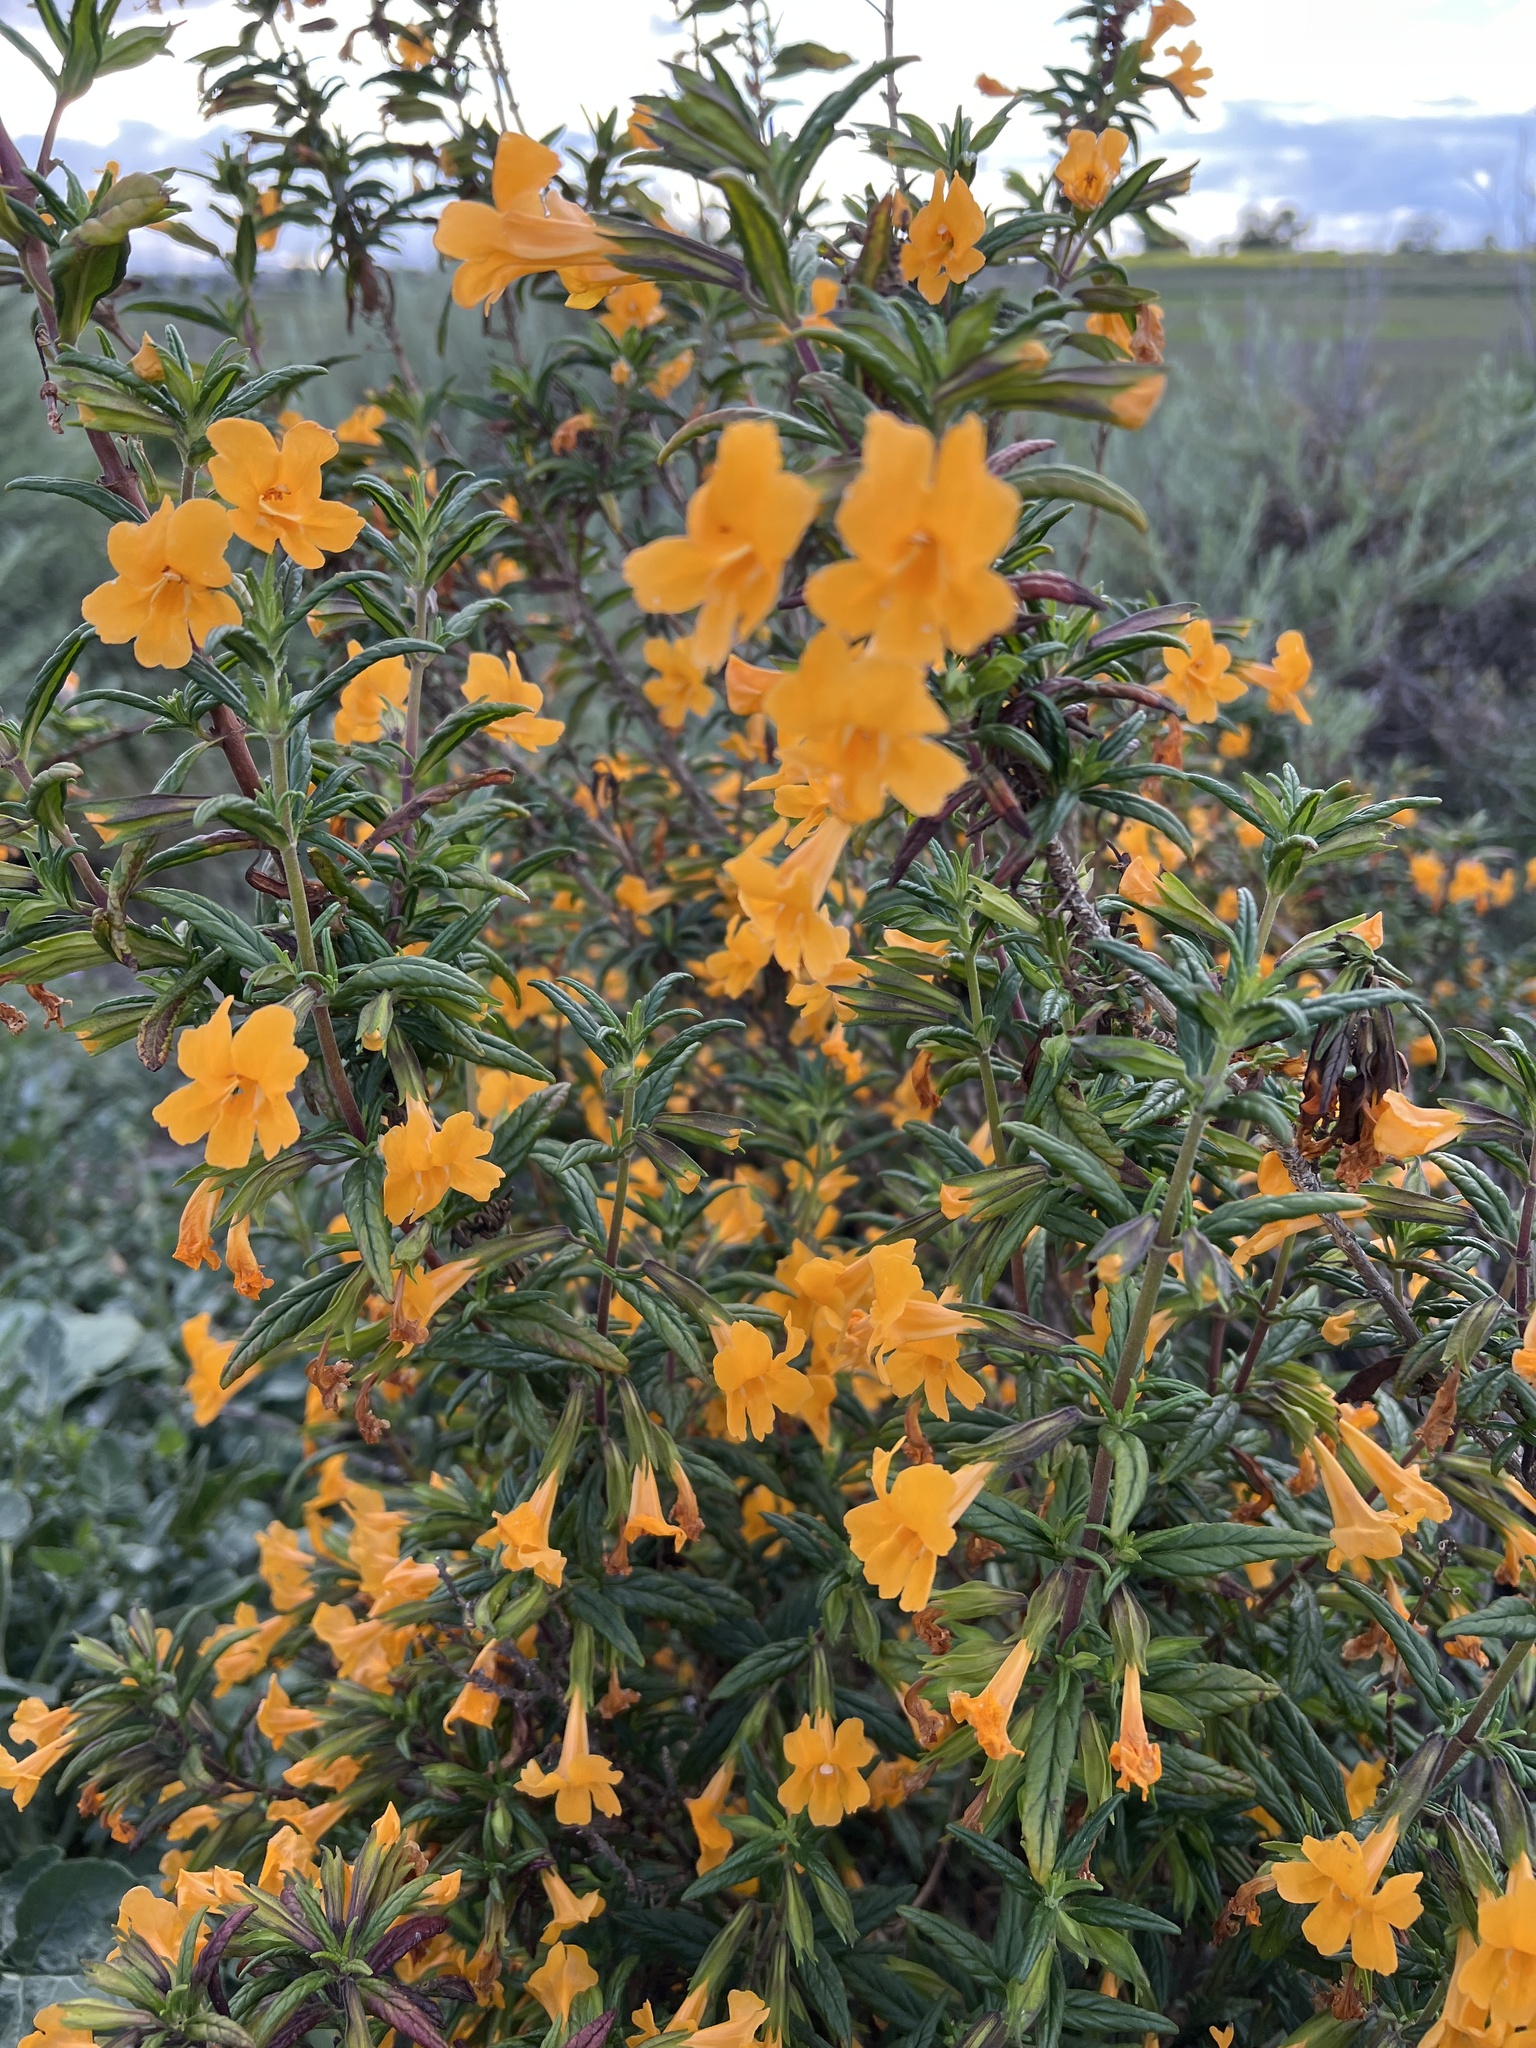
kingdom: Plantae
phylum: Tracheophyta
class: Magnoliopsida
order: Lamiales
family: Phrymaceae
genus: Diplacus
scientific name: Diplacus aurantiacus
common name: Bush monkey-flower
